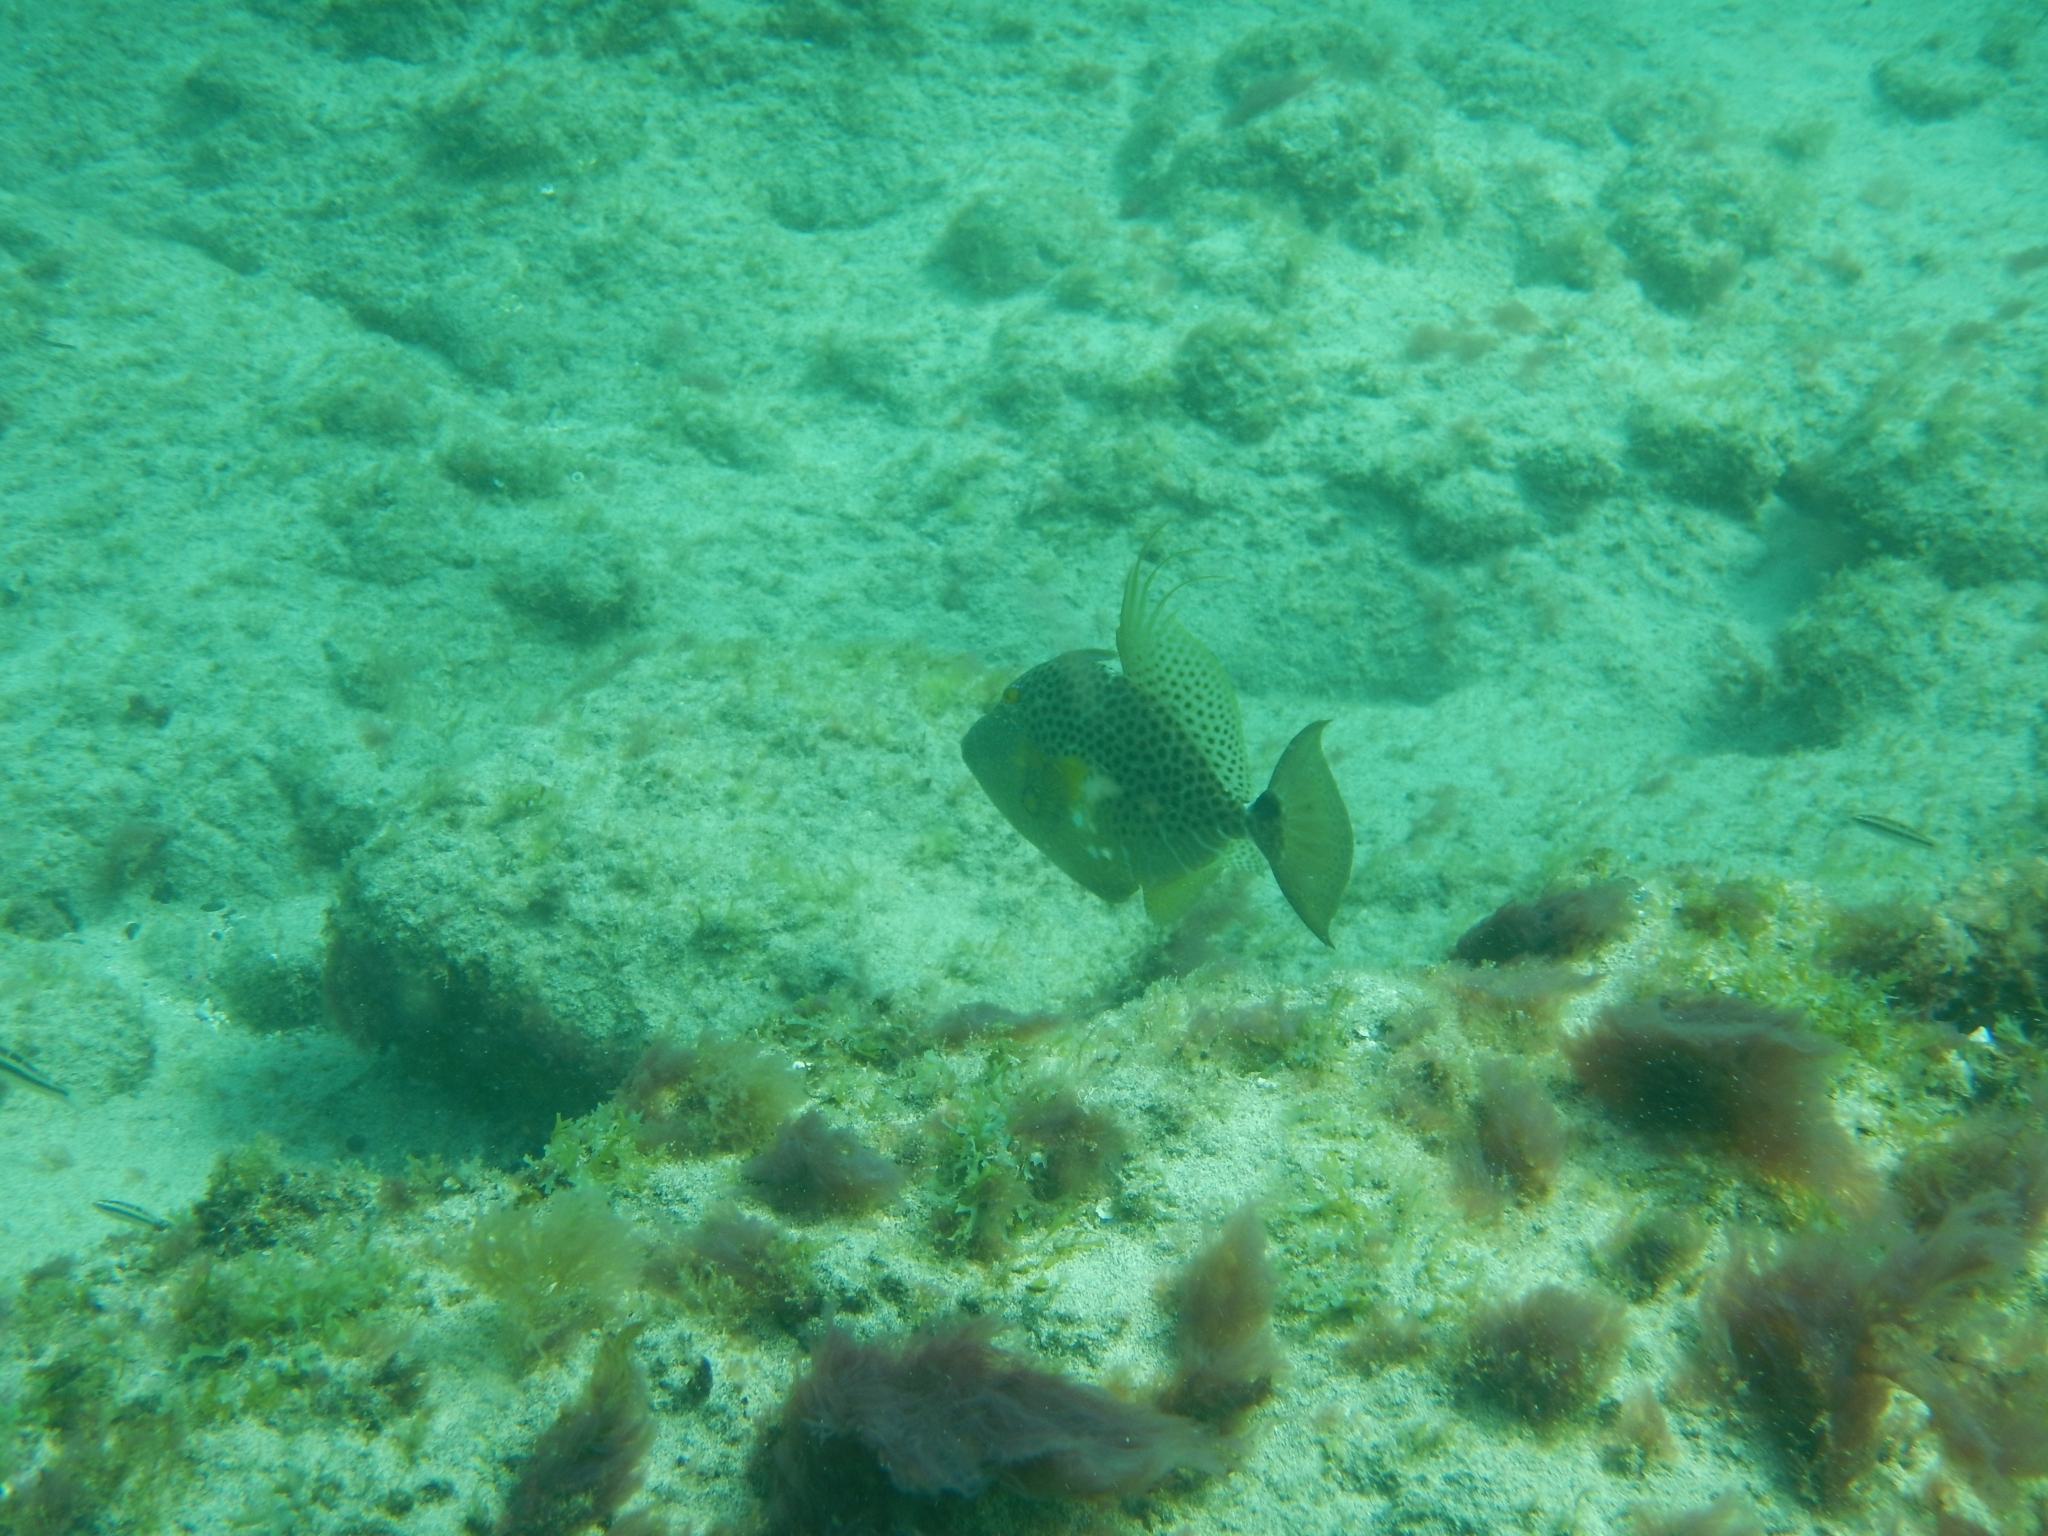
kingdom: Animalia
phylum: Chordata
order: Tetraodontiformes
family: Balistidae
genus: Balistes
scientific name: Balistes punctatus
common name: Bluespotted triggerfish
